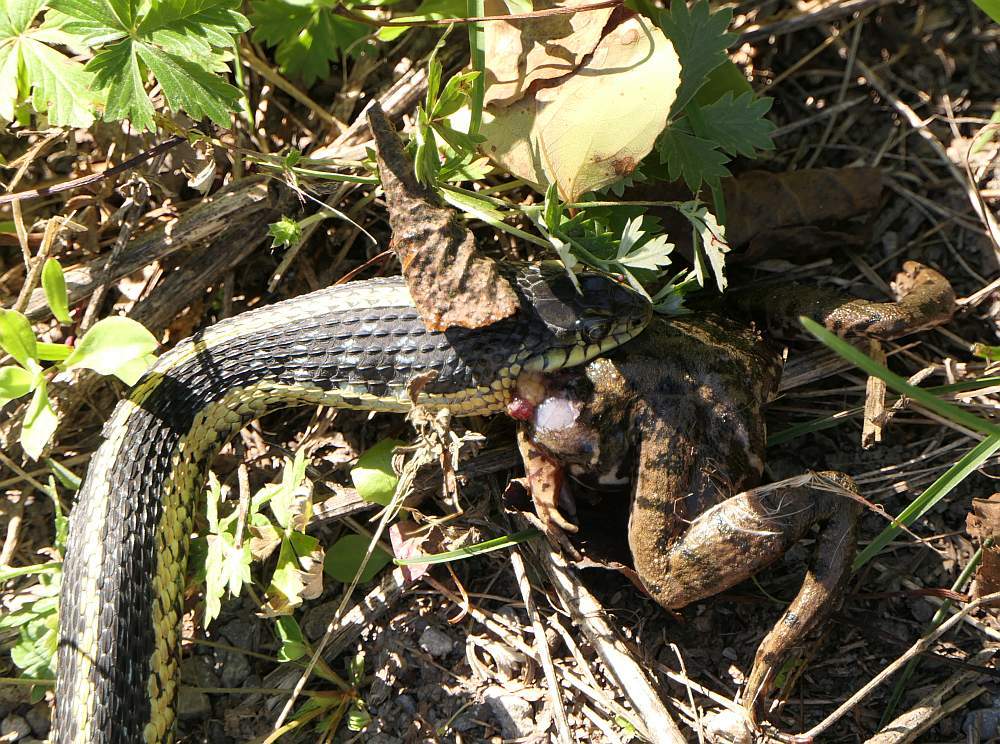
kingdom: Animalia
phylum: Chordata
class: Squamata
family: Colubridae
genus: Thamnophis
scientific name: Thamnophis sirtalis
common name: Common garter snake
